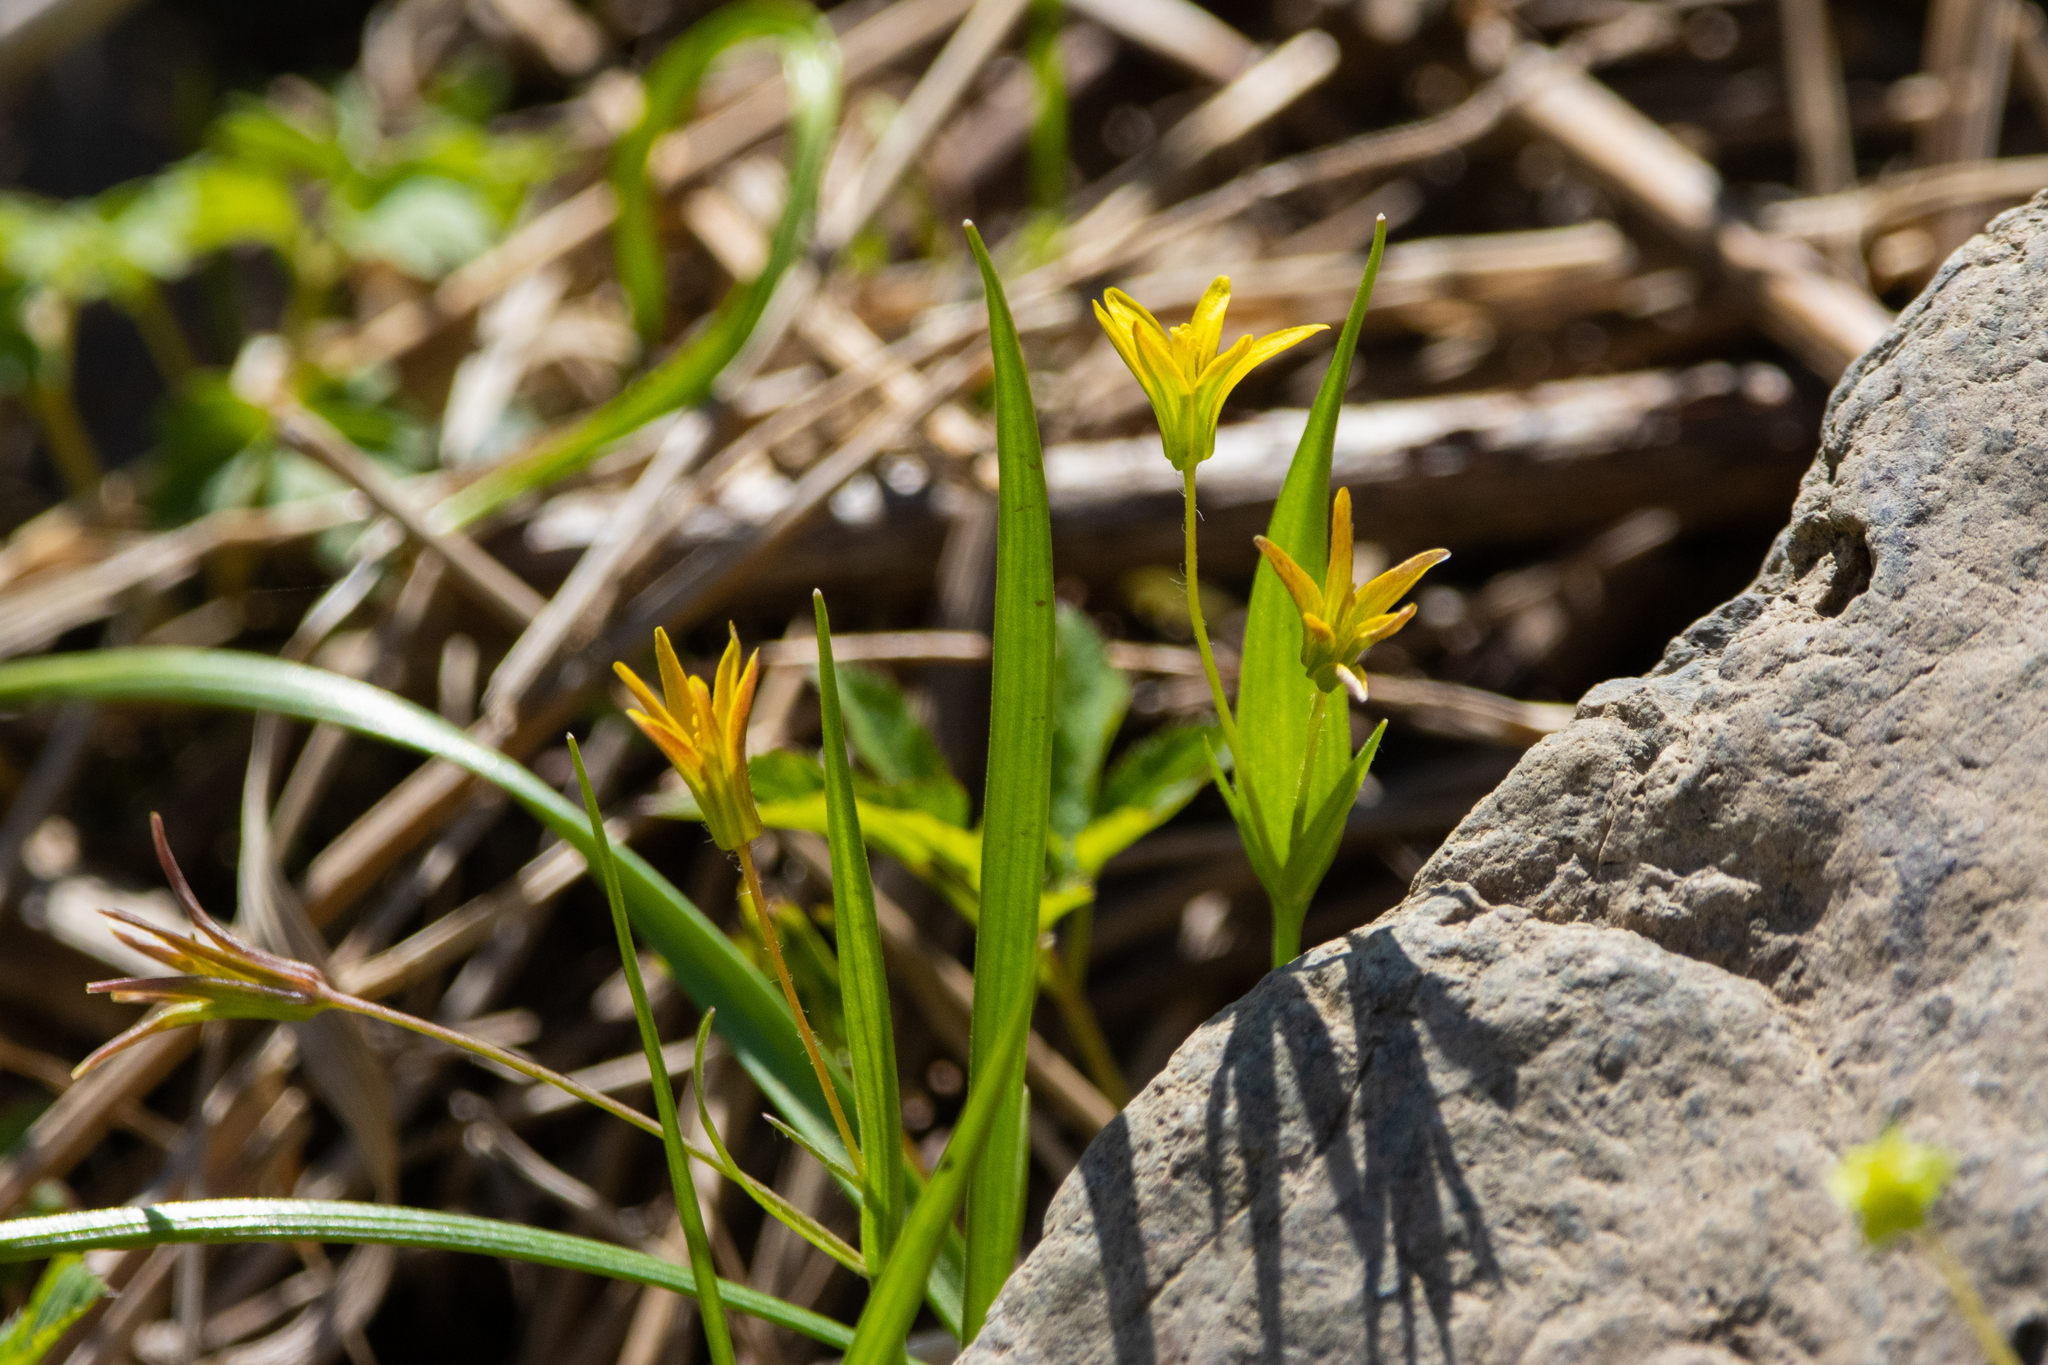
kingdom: Plantae
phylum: Tracheophyta
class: Liliopsida
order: Liliales
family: Liliaceae
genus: Gagea
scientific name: Gagea minima
